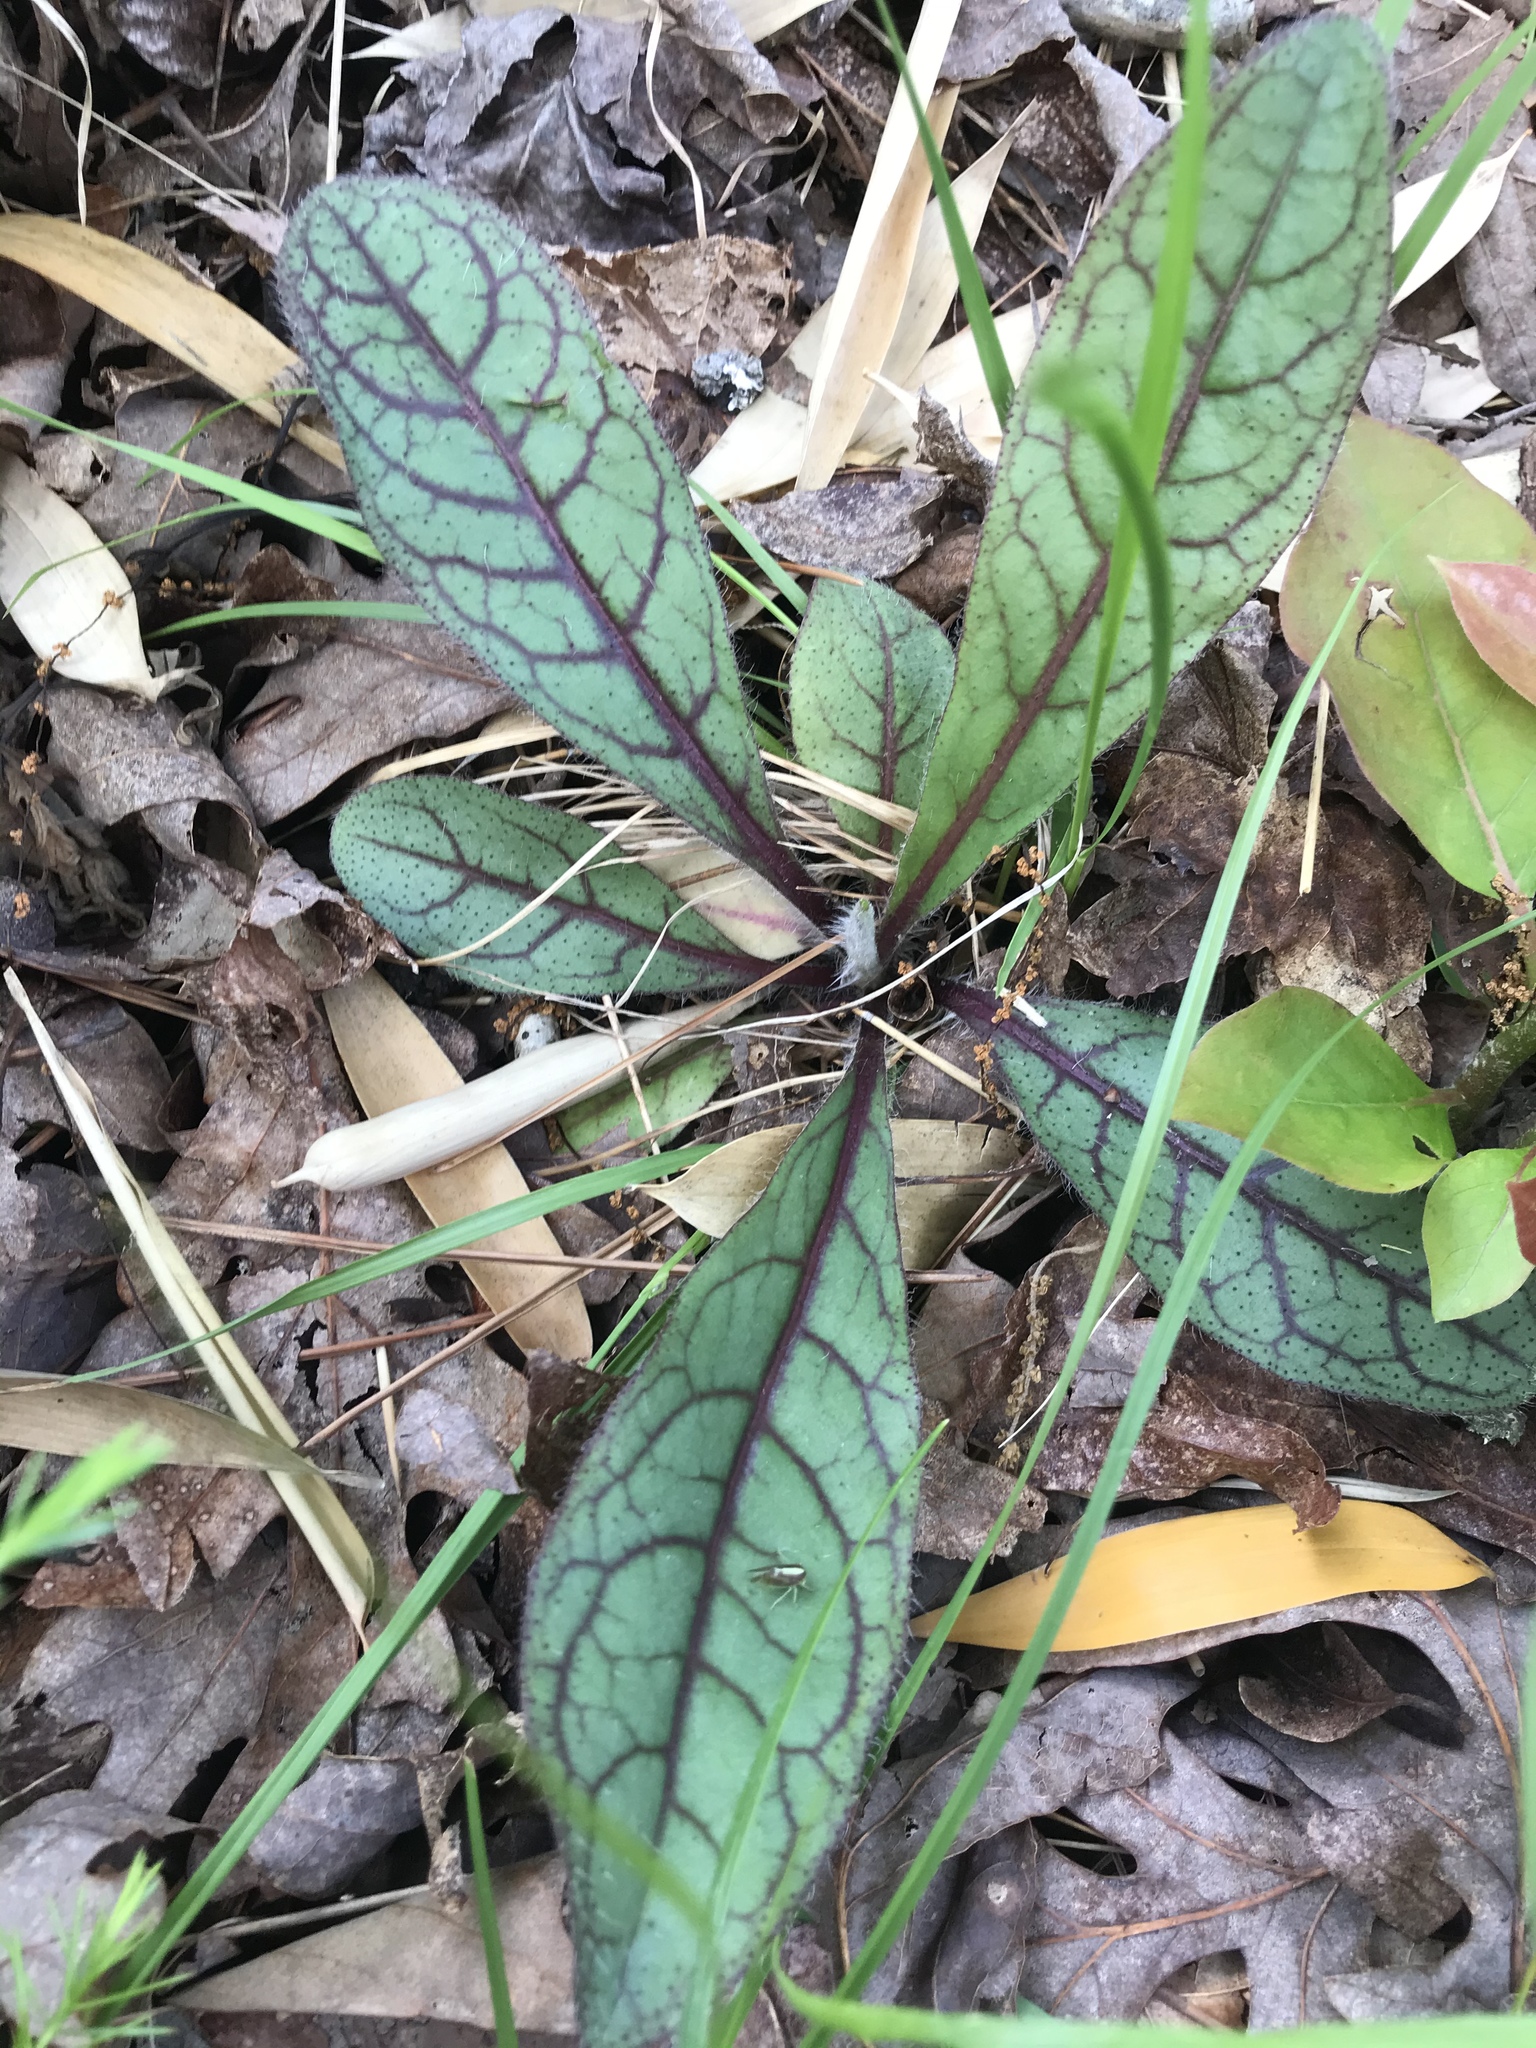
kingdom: Plantae
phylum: Tracheophyta
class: Magnoliopsida
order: Asterales
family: Asteraceae
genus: Hieracium
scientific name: Hieracium venosum
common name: Rattlesnake hawkweed
